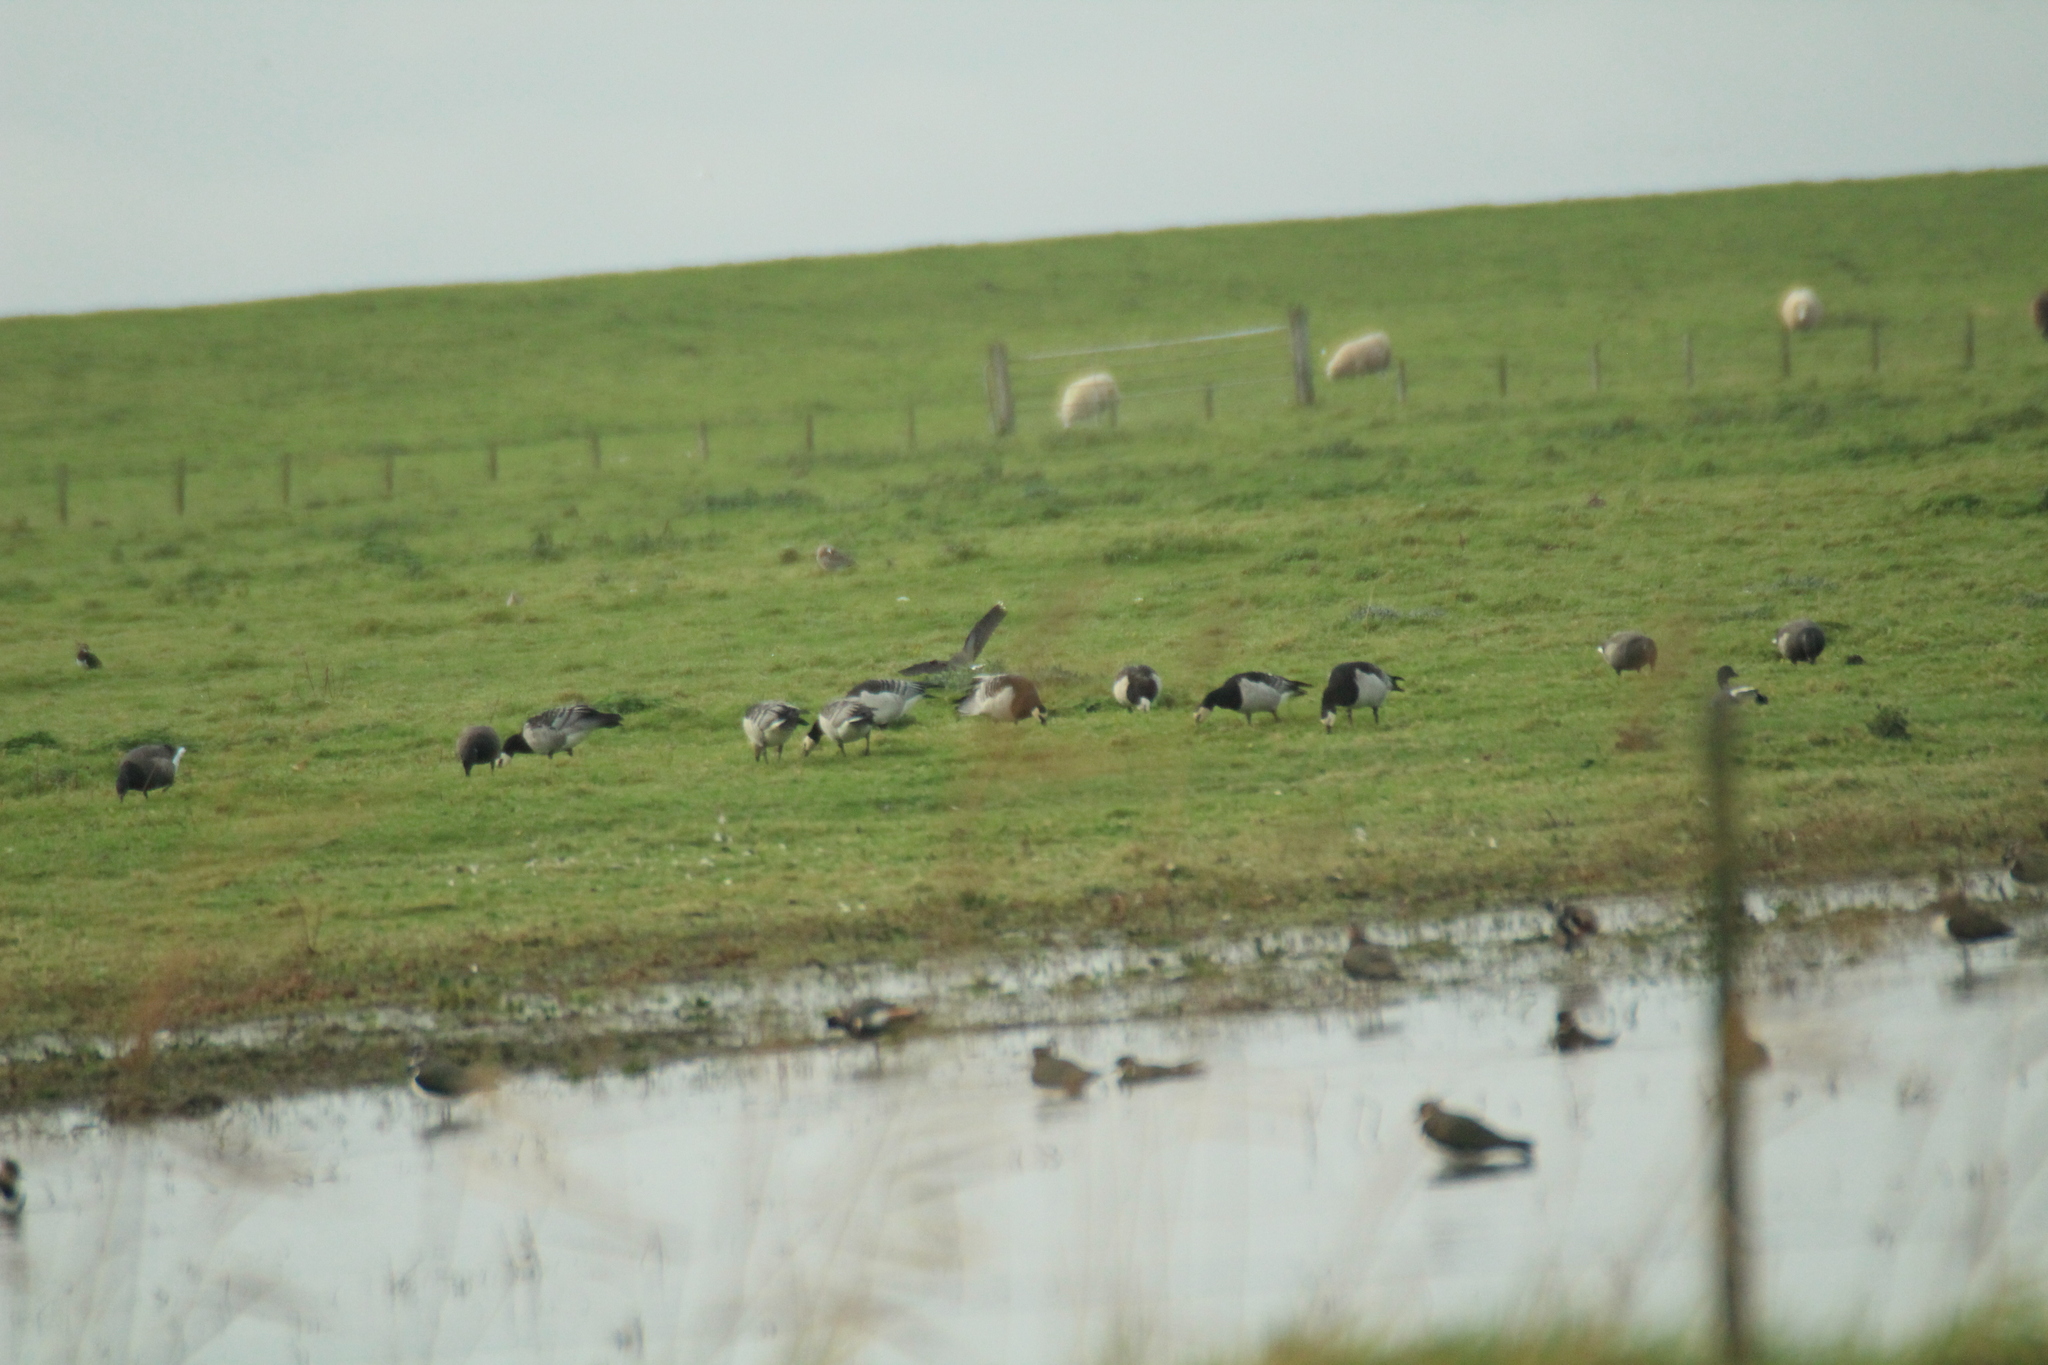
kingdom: Animalia
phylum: Chordata
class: Aves
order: Anseriformes
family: Anatidae
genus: Branta
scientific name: Branta leucopsis
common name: Barnacle goose
